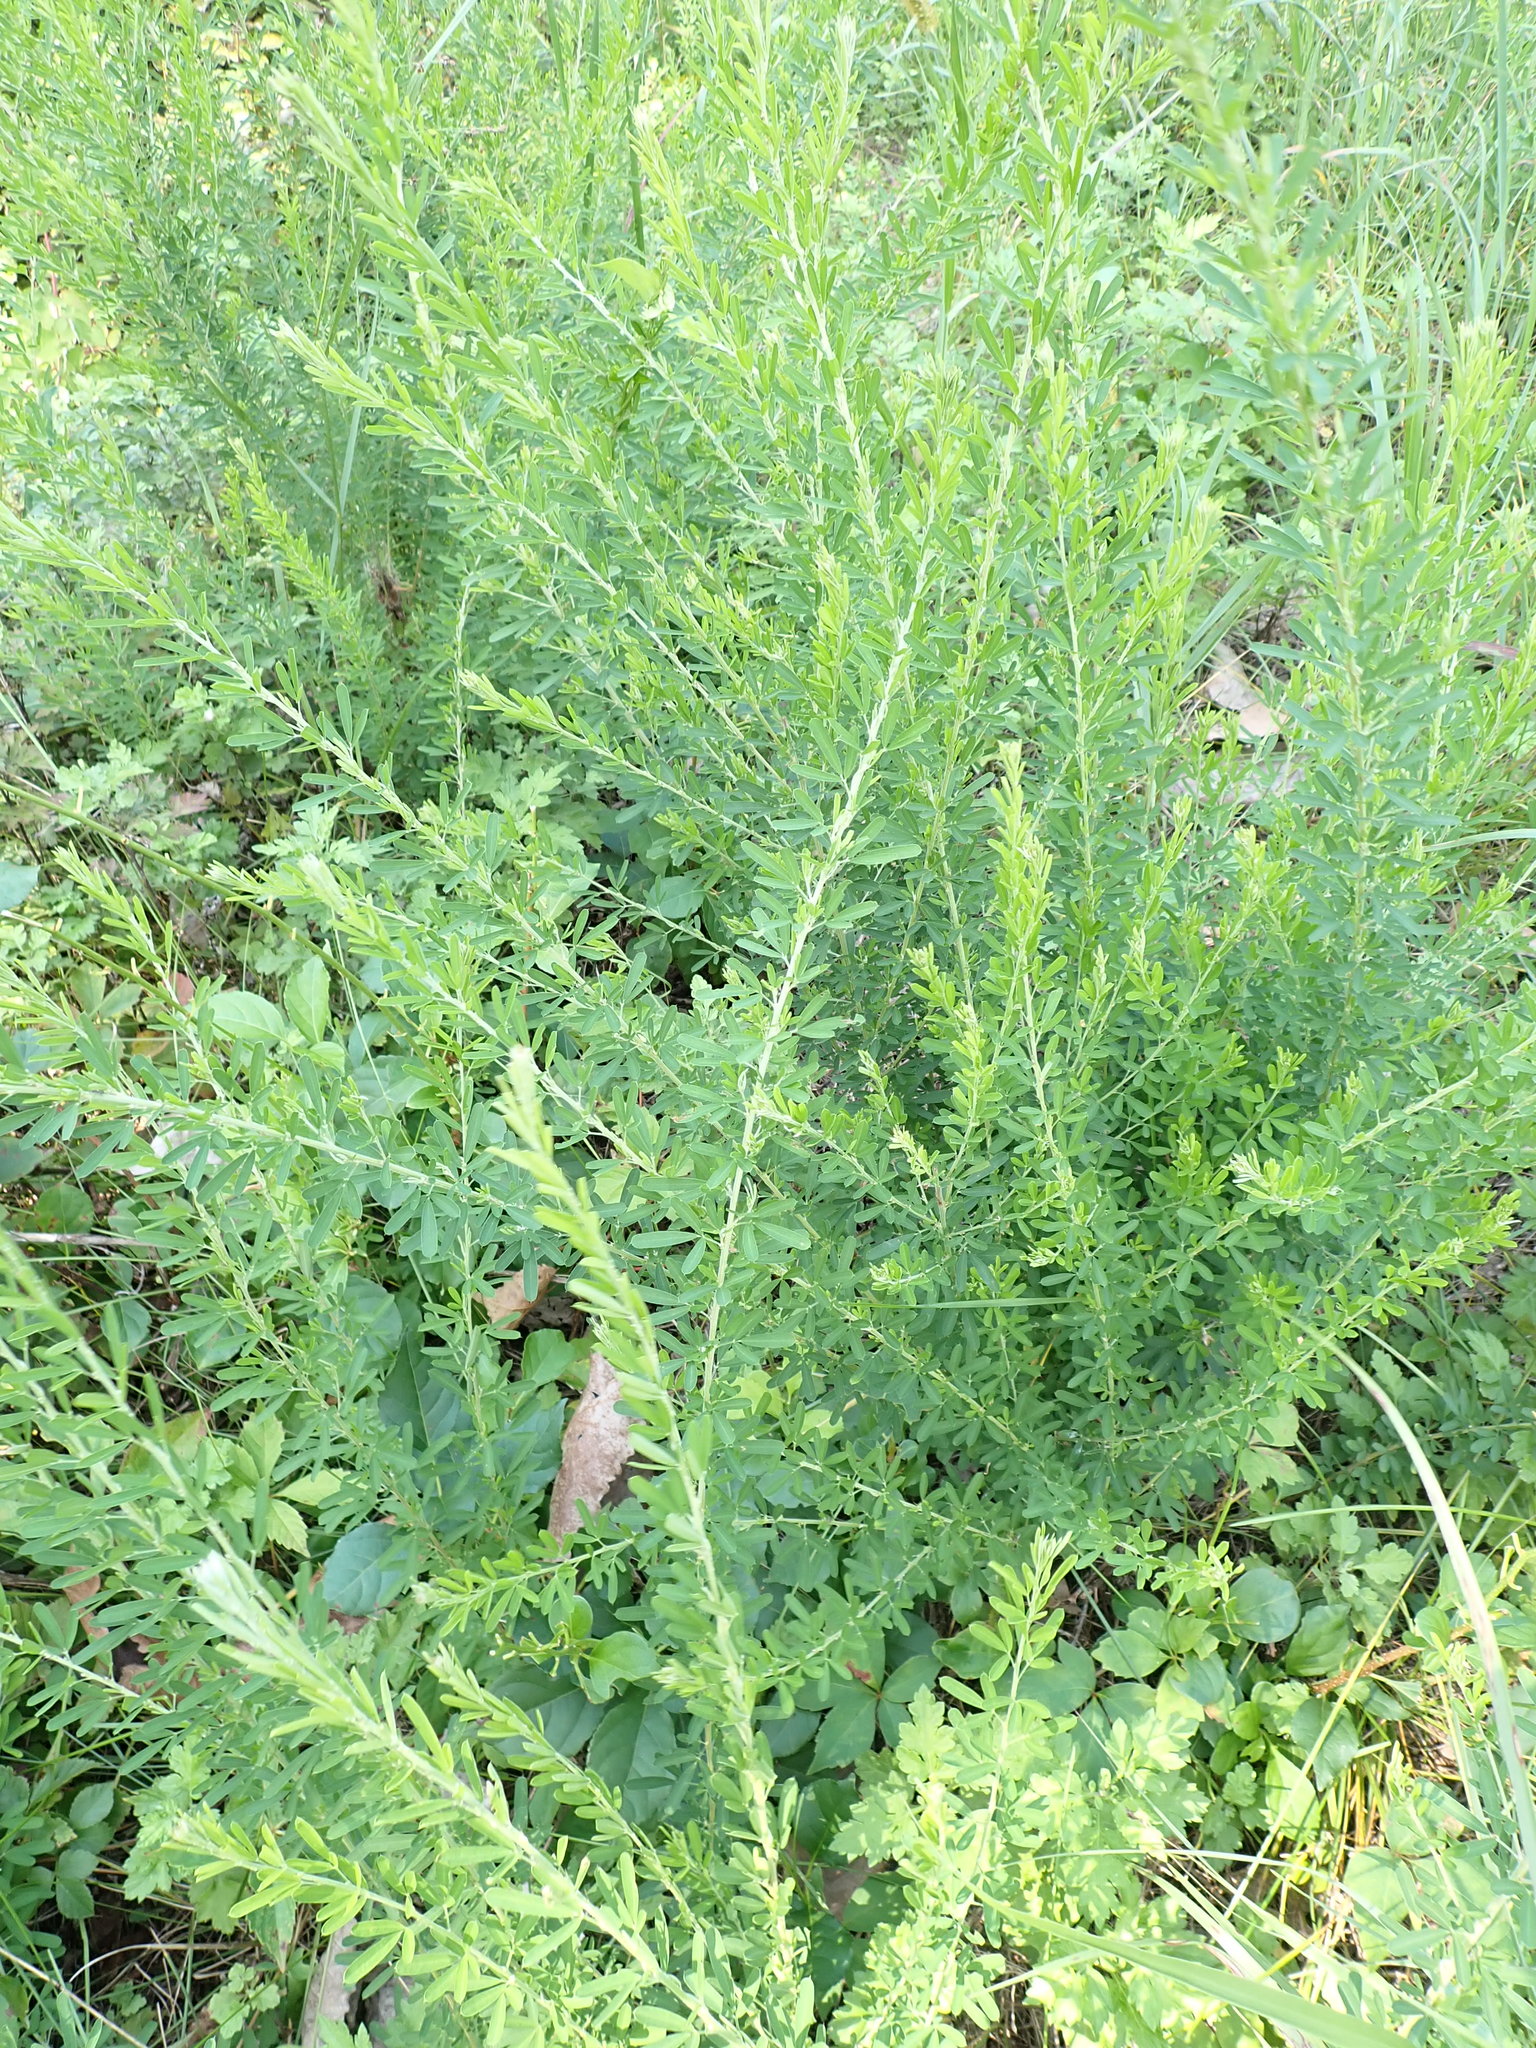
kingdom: Plantae
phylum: Tracheophyta
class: Magnoliopsida
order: Fabales
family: Fabaceae
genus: Lespedeza
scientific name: Lespedeza cuneata
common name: Chinese bush-clover
